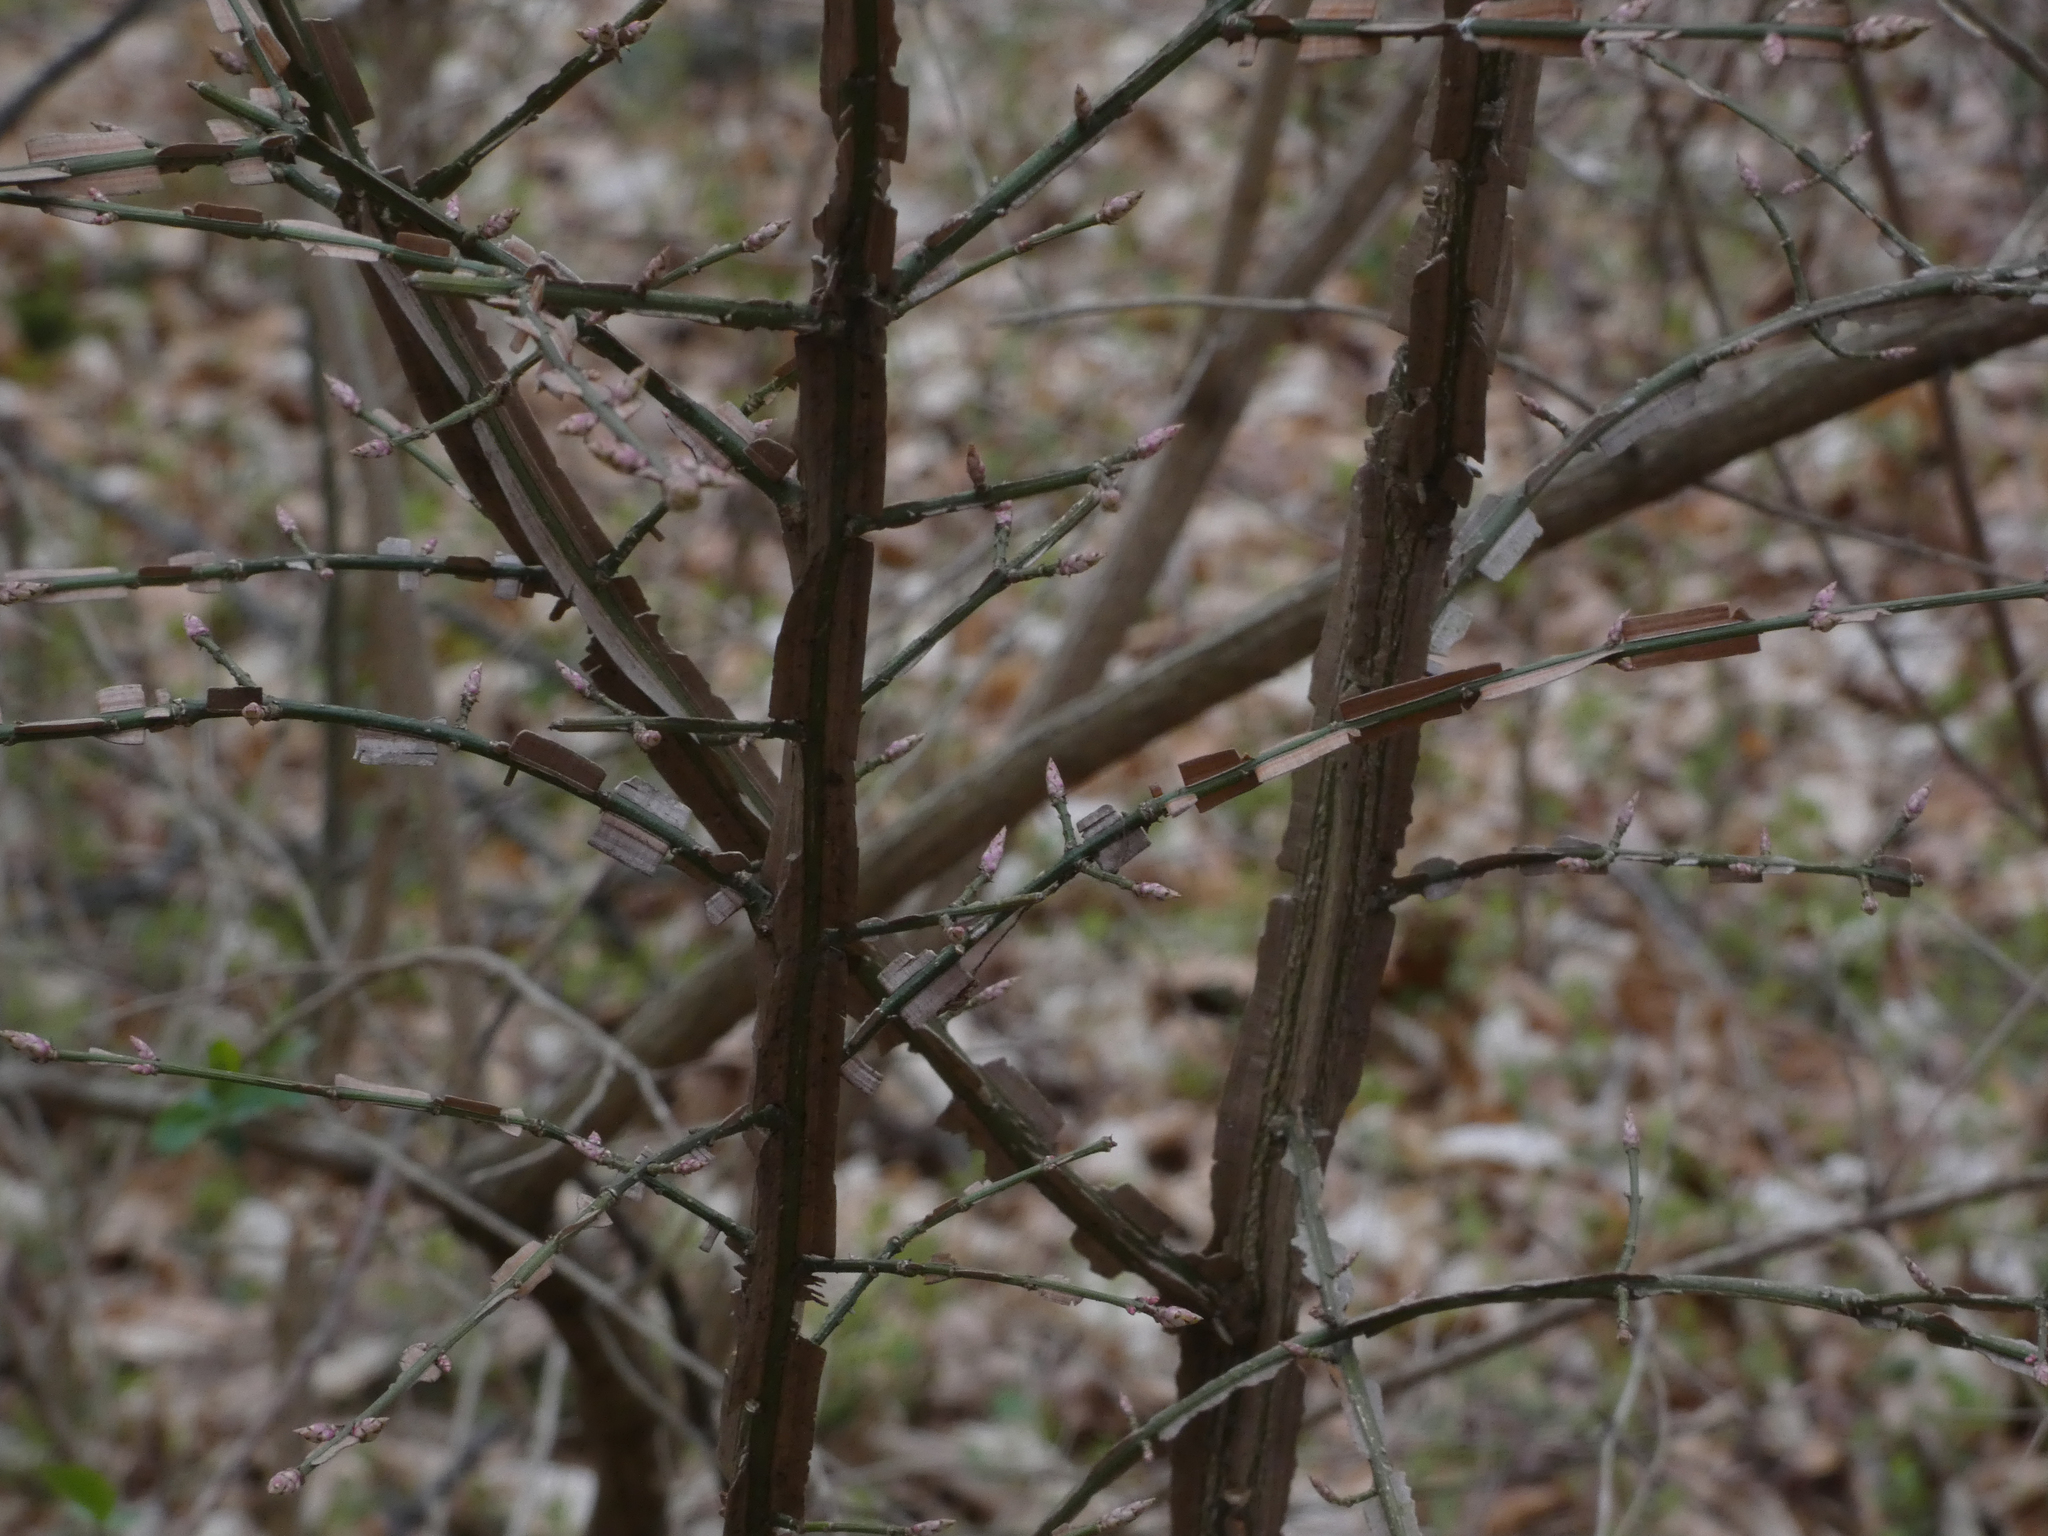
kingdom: Plantae
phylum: Tracheophyta
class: Magnoliopsida
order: Celastrales
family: Celastraceae
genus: Euonymus
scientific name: Euonymus alatus
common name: Winged euonymus
